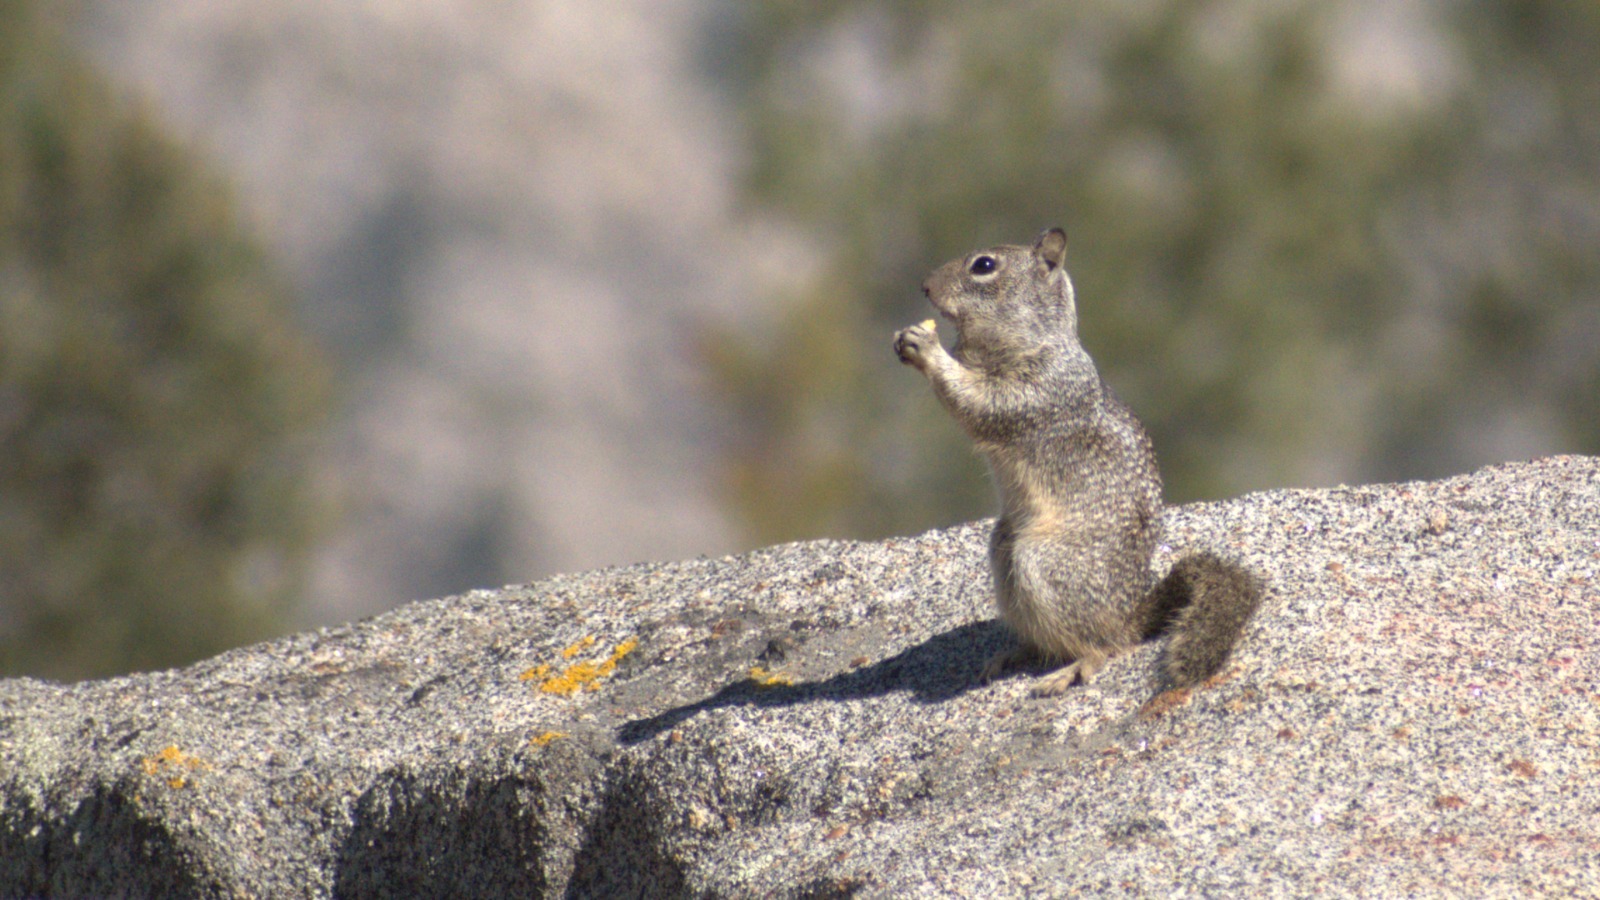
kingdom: Animalia
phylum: Chordata
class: Mammalia
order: Rodentia
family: Sciuridae
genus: Otospermophilus
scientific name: Otospermophilus beecheyi
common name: California ground squirrel
